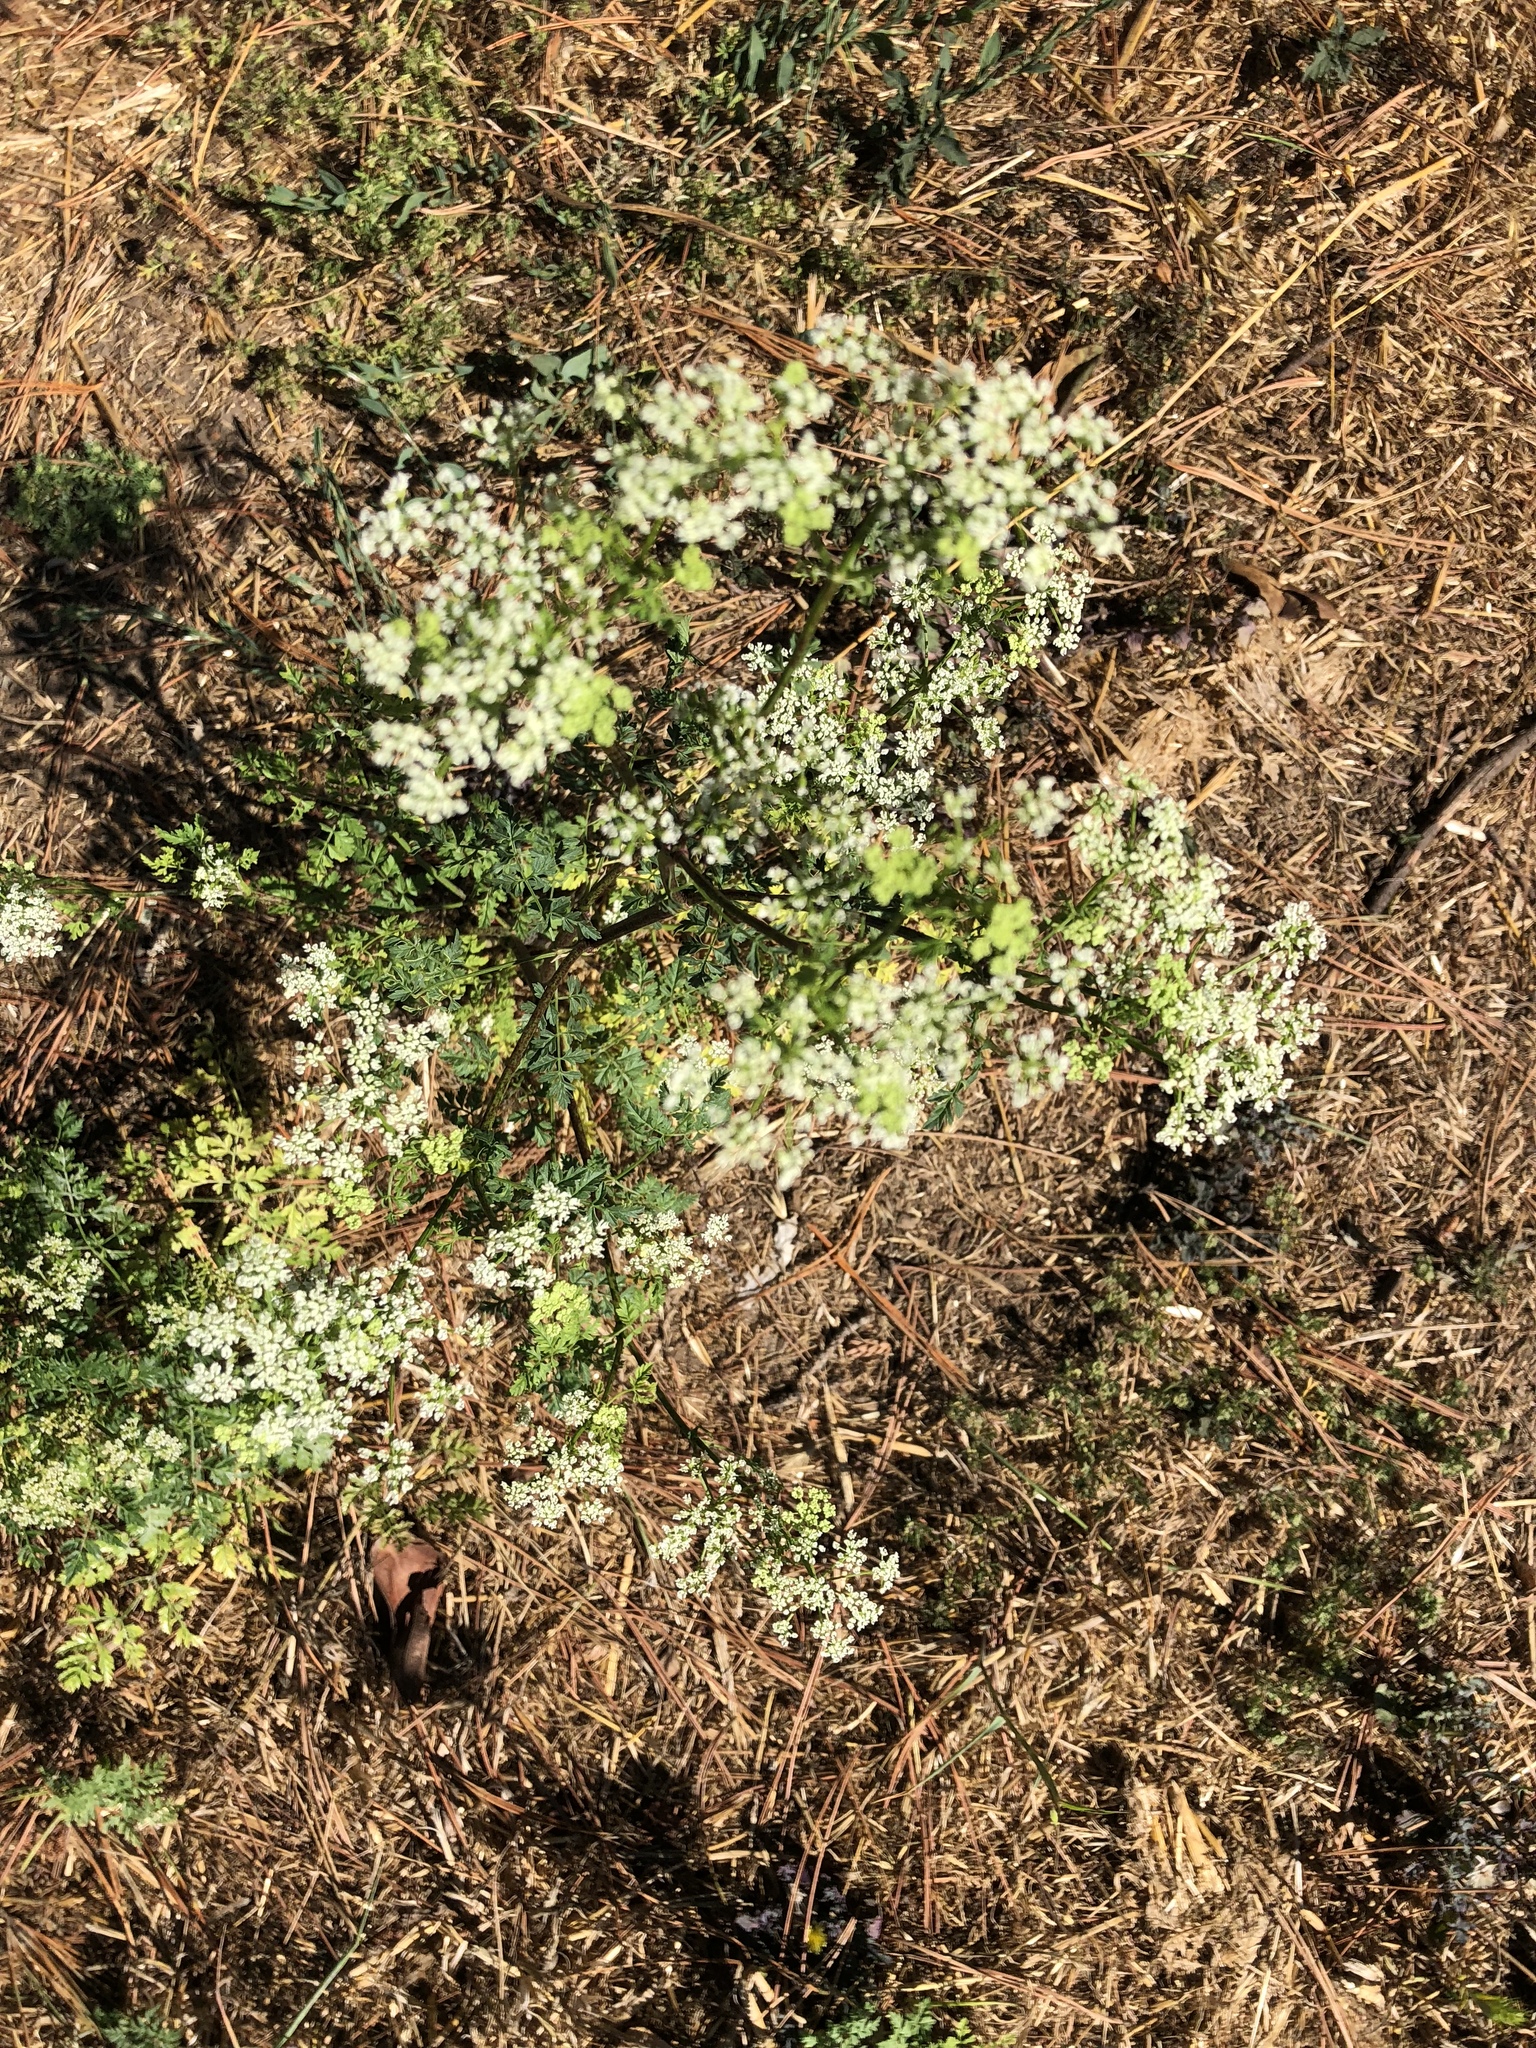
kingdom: Plantae
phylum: Tracheophyta
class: Magnoliopsida
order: Apiales
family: Apiaceae
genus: Conium
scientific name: Conium maculatum
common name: Hemlock
